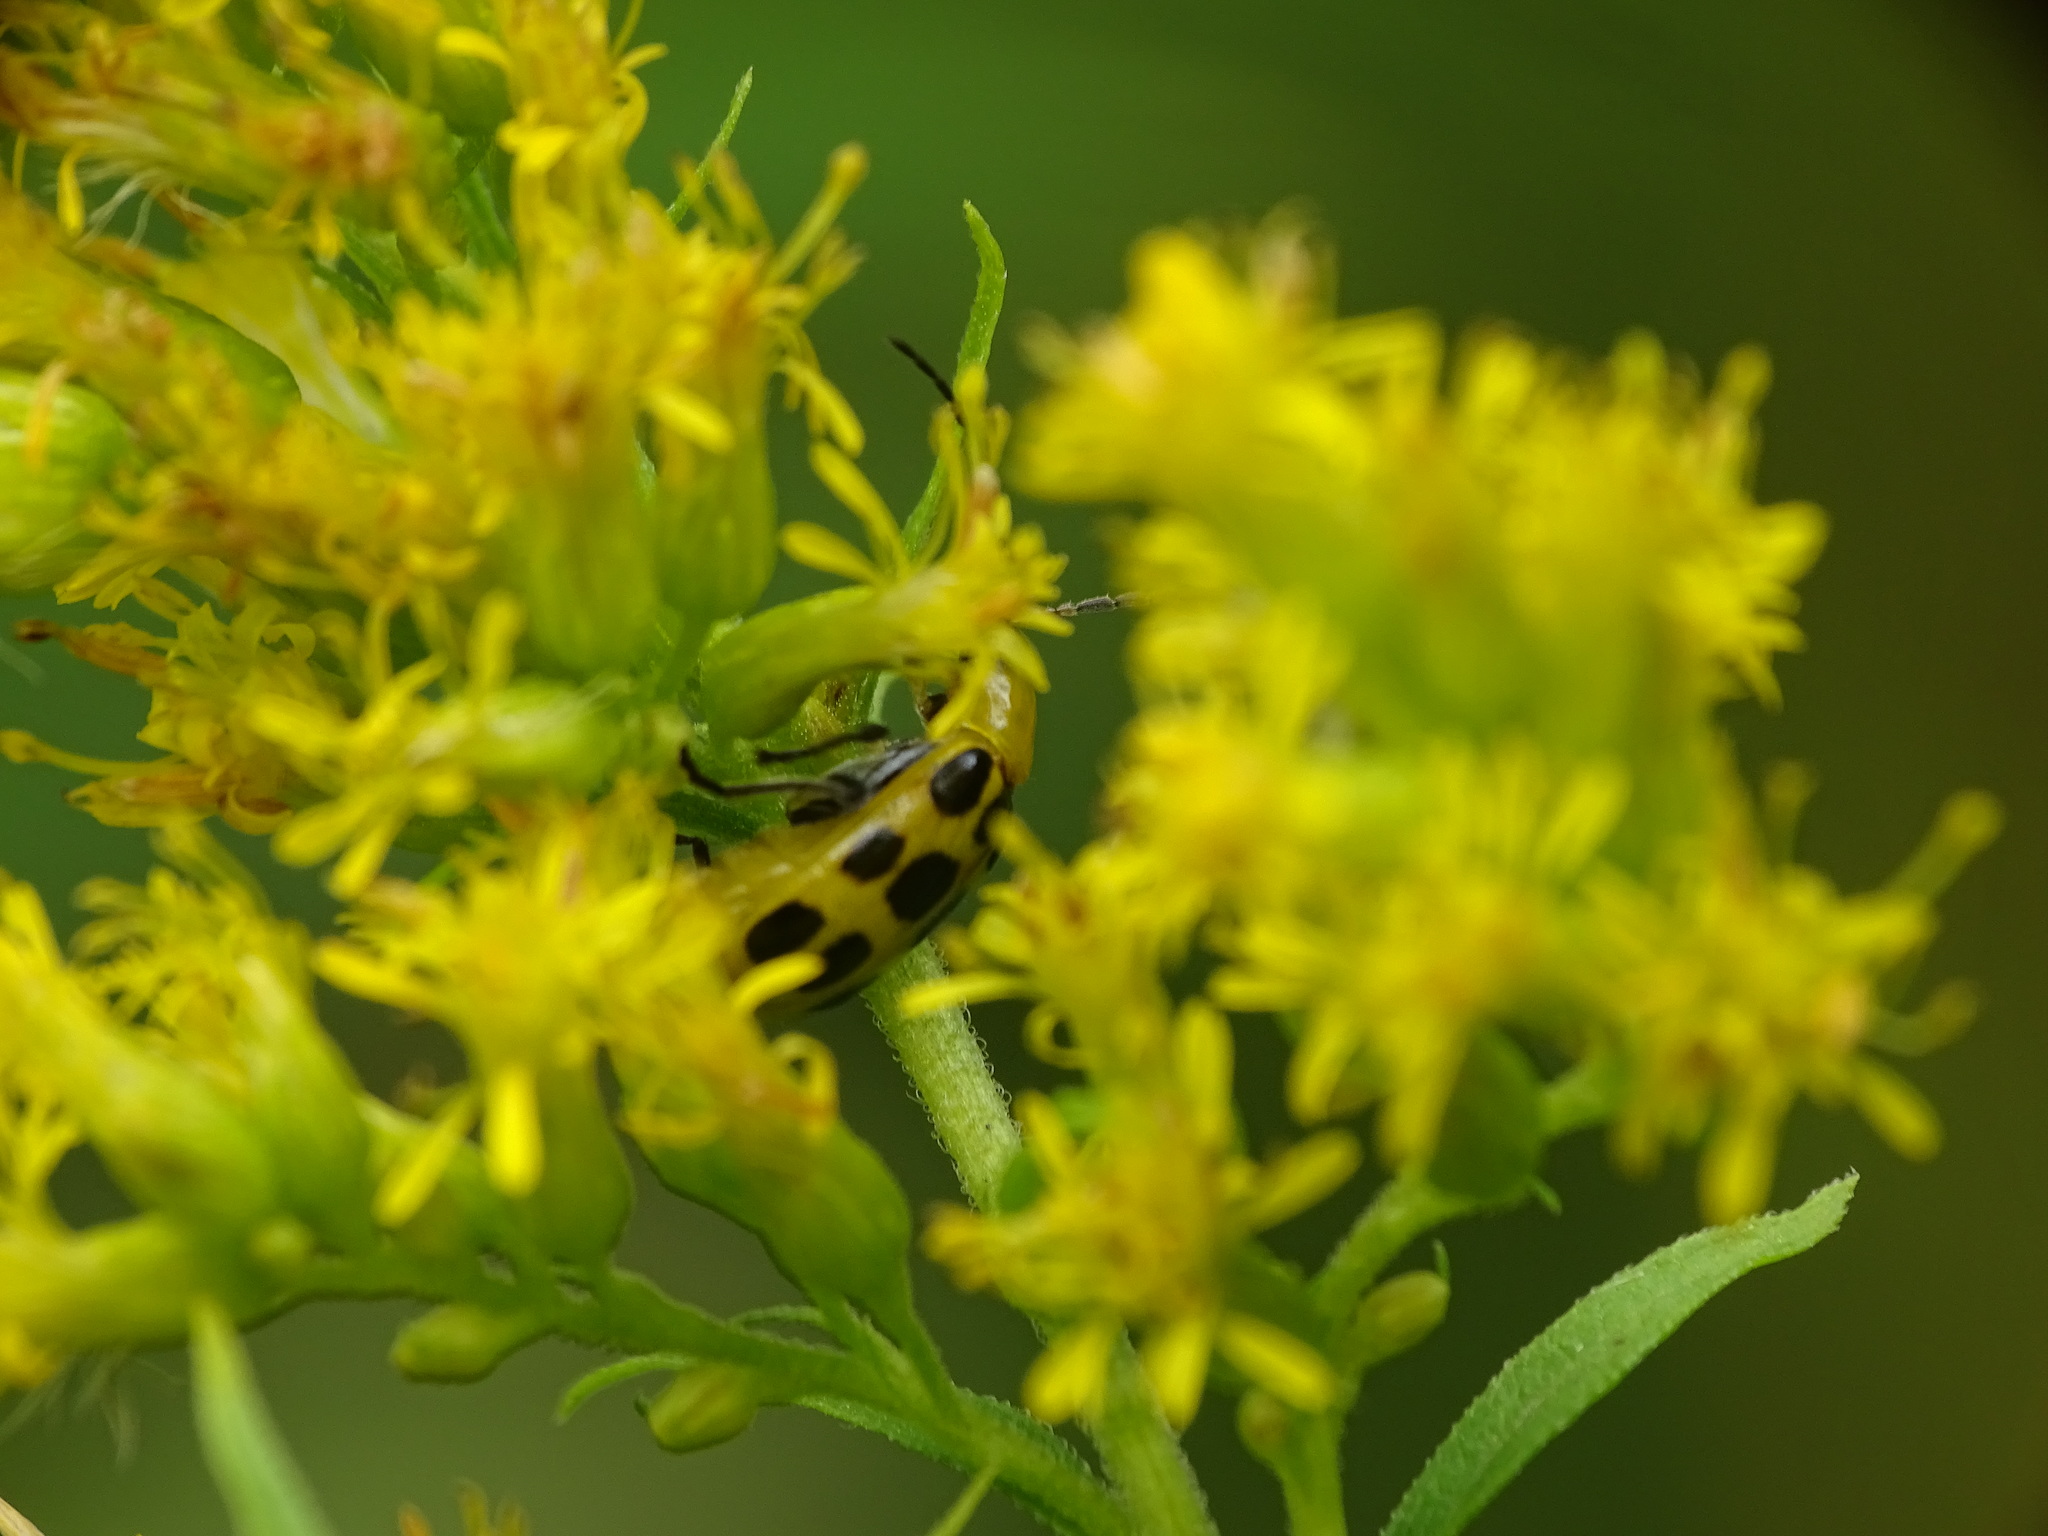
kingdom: Animalia
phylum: Arthropoda
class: Insecta
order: Coleoptera
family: Chrysomelidae
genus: Diabrotica
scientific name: Diabrotica undecimpunctata
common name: Spotted cucumber beetle
